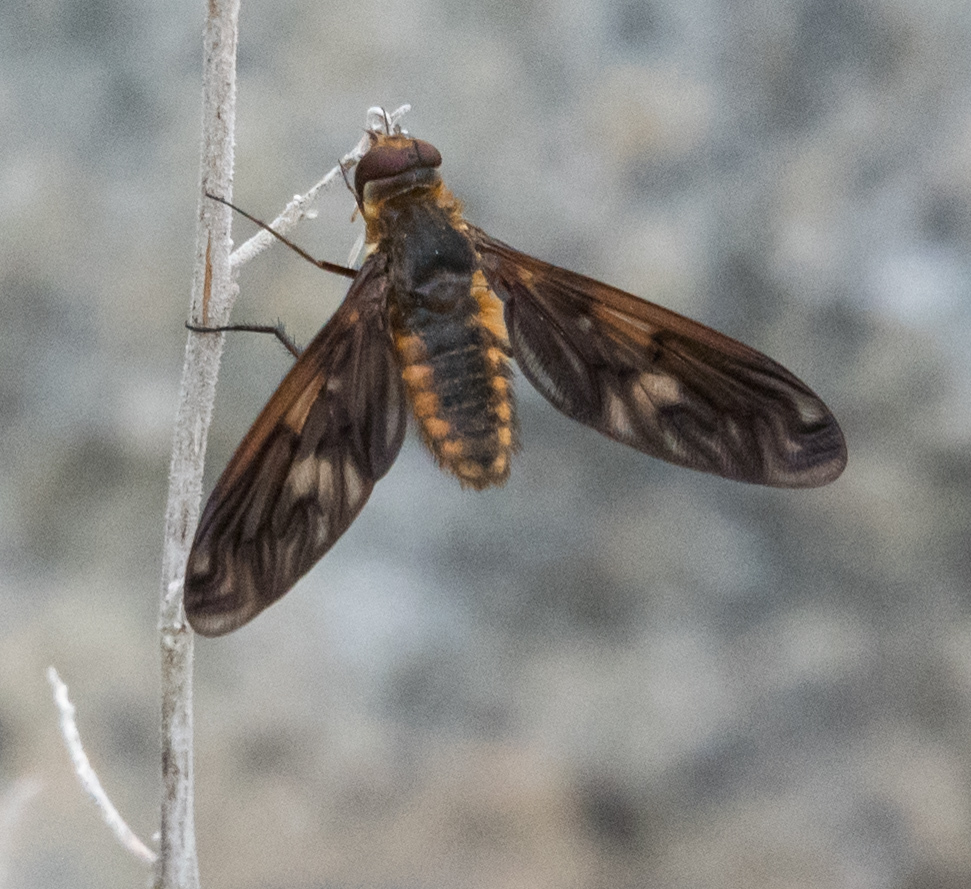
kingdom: Animalia
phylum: Arthropoda
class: Insecta
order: Diptera
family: Bombyliidae
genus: Poecilanthrax
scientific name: Poecilanthrax ingens
